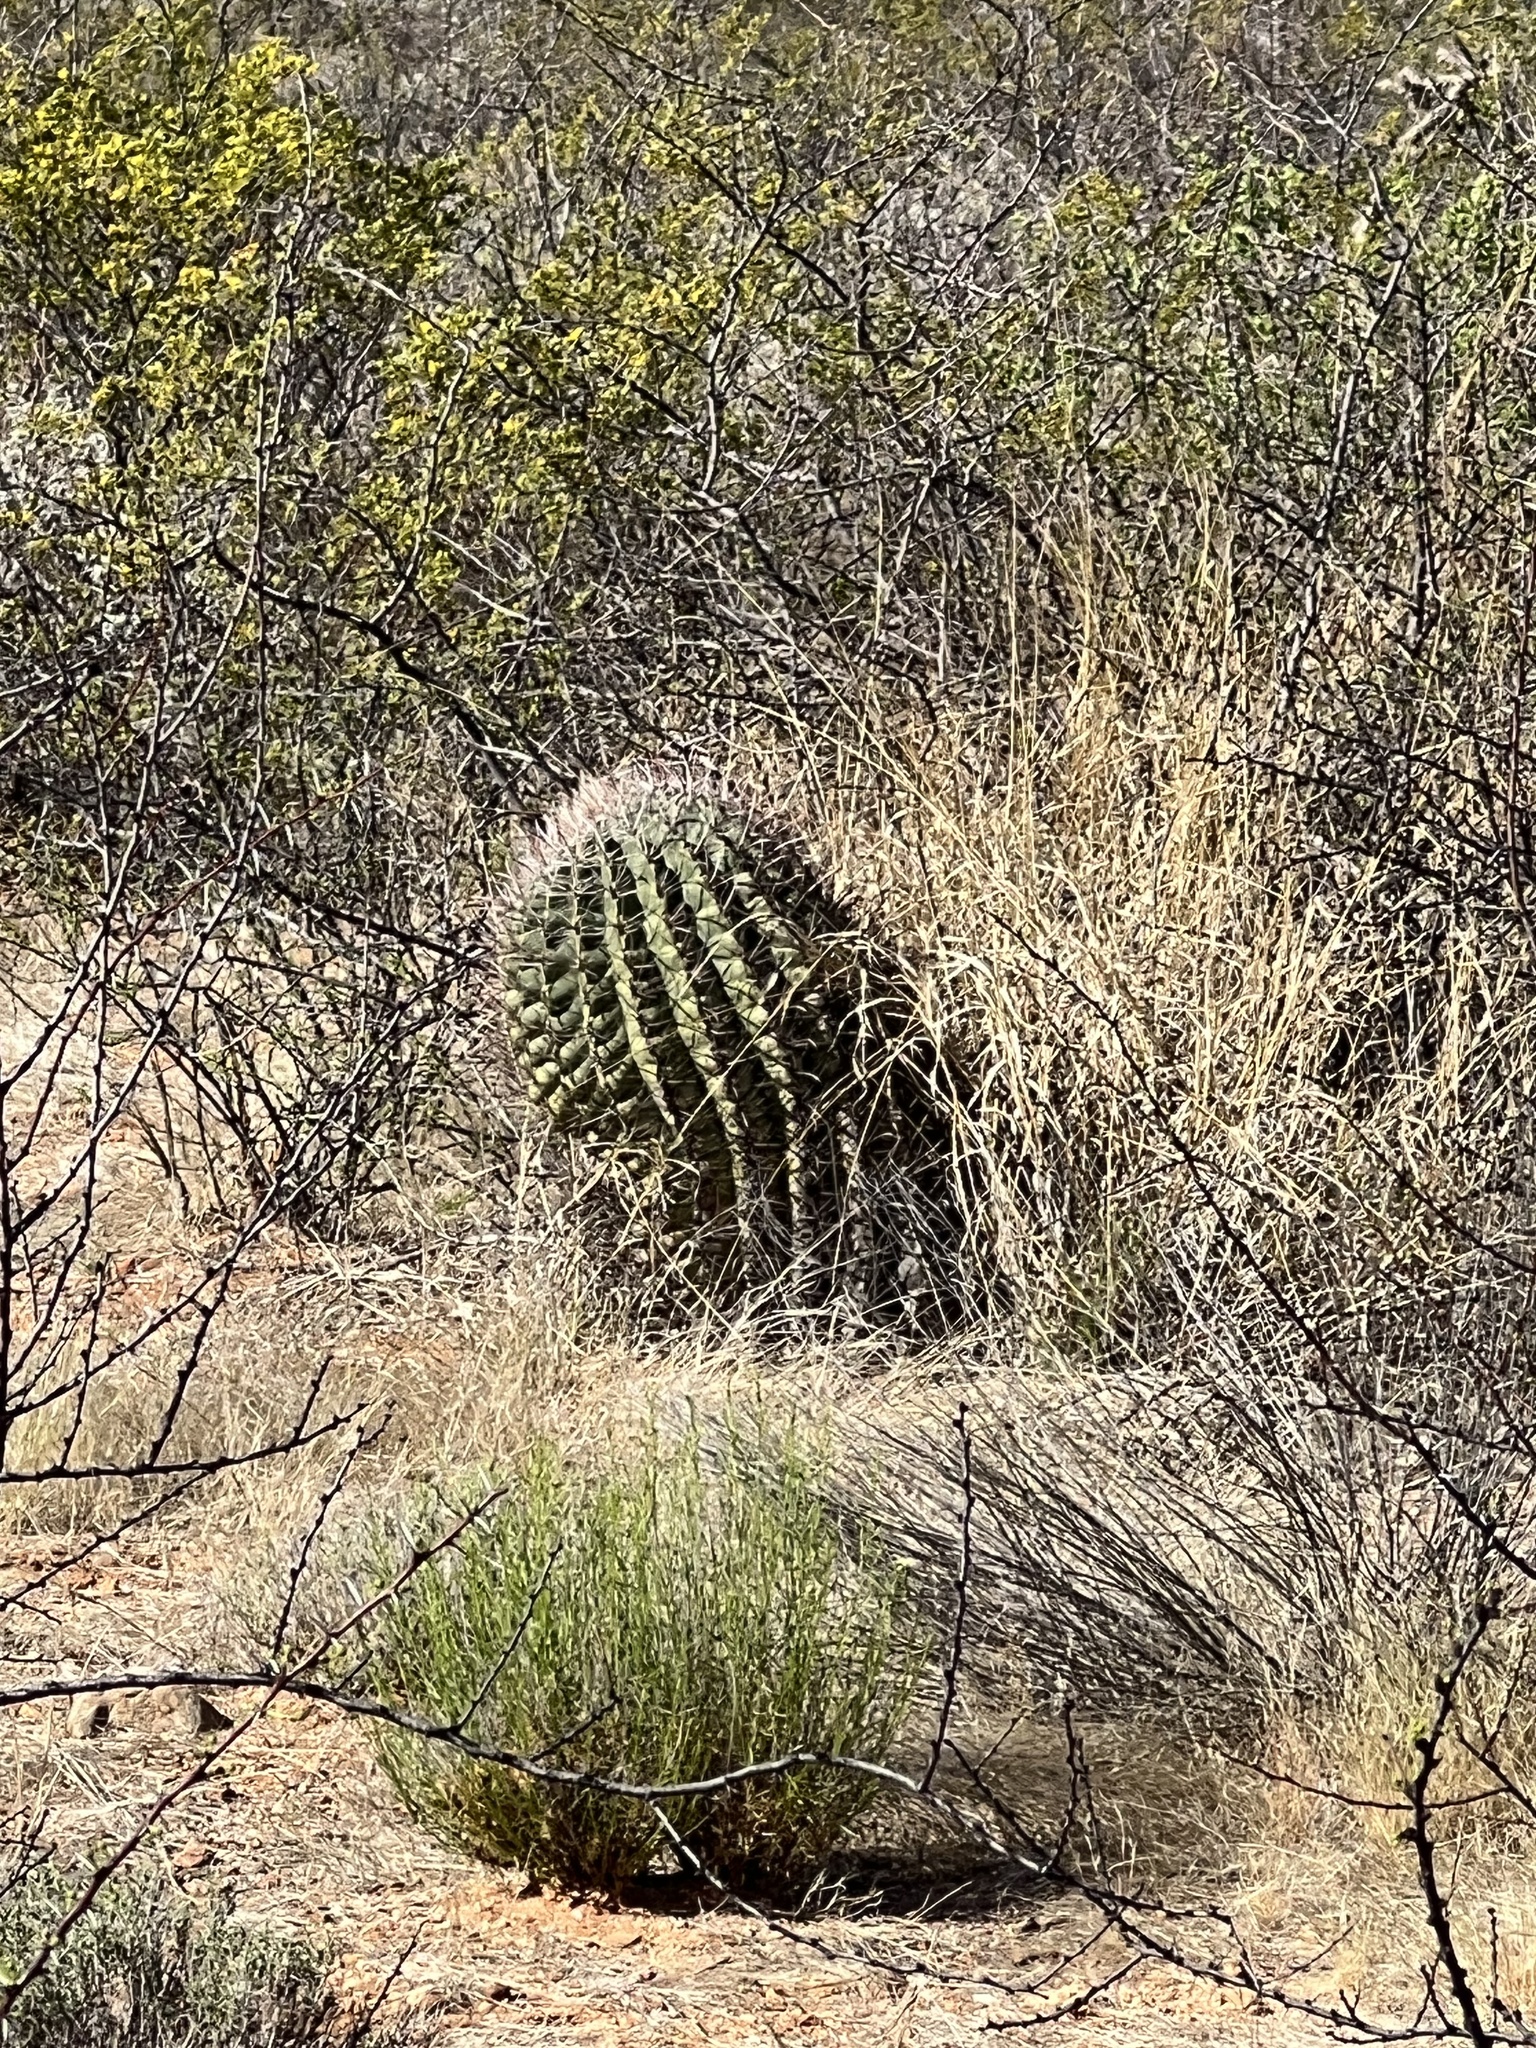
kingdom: Plantae
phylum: Tracheophyta
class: Magnoliopsida
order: Caryophyllales
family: Cactaceae
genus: Ferocactus
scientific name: Ferocactus wislizeni
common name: Candy barrel cactus
